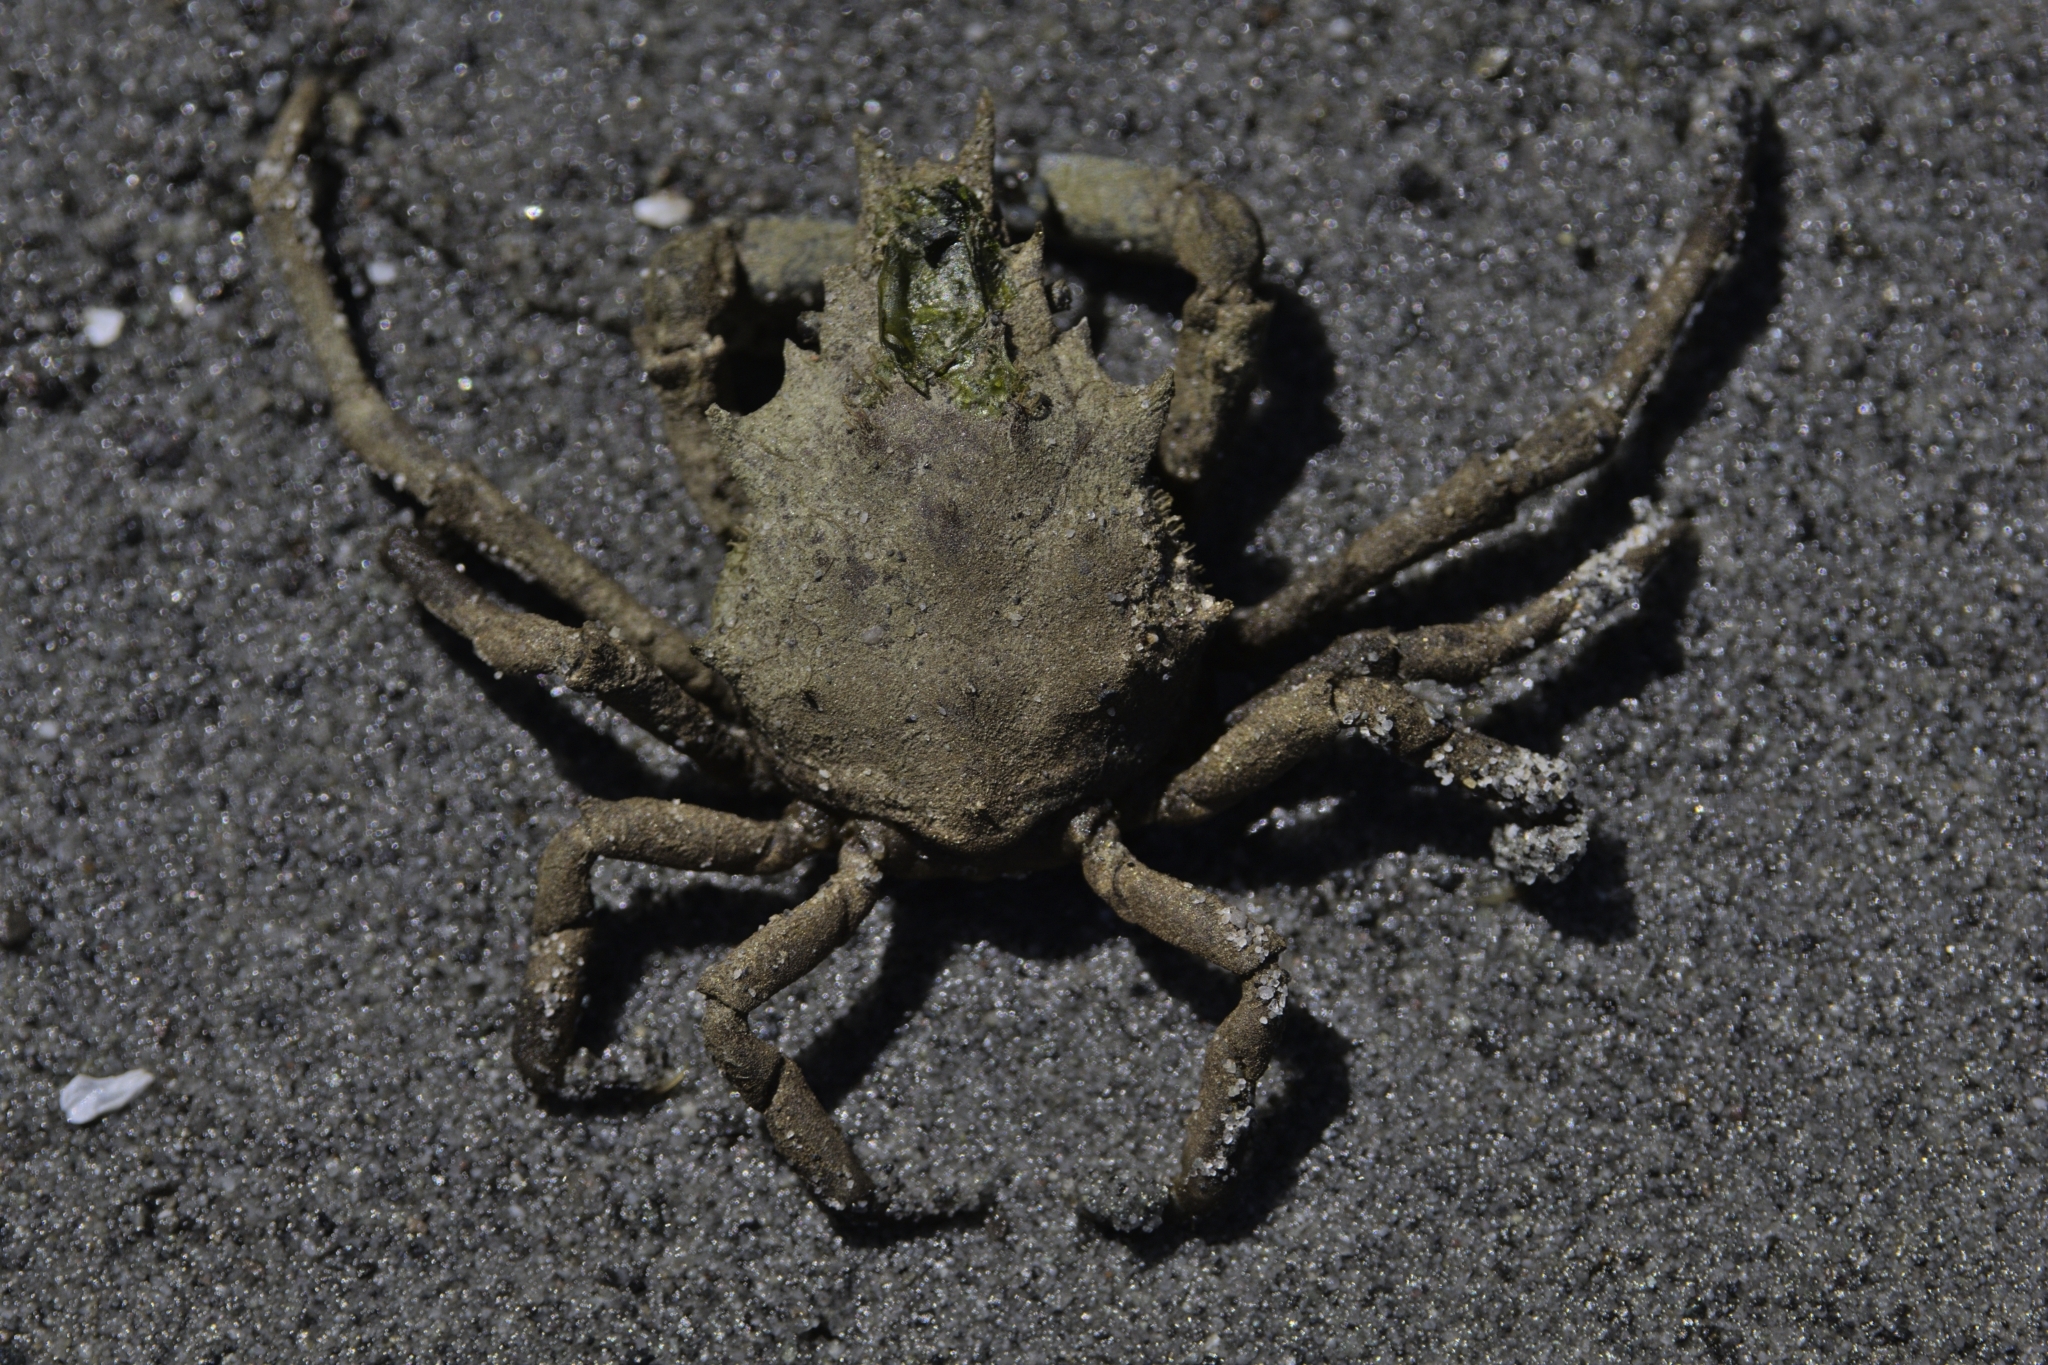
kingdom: Animalia
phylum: Arthropoda
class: Malacostraca
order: Decapoda
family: Epialtidae
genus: Pugettia
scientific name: Pugettia gracilis
